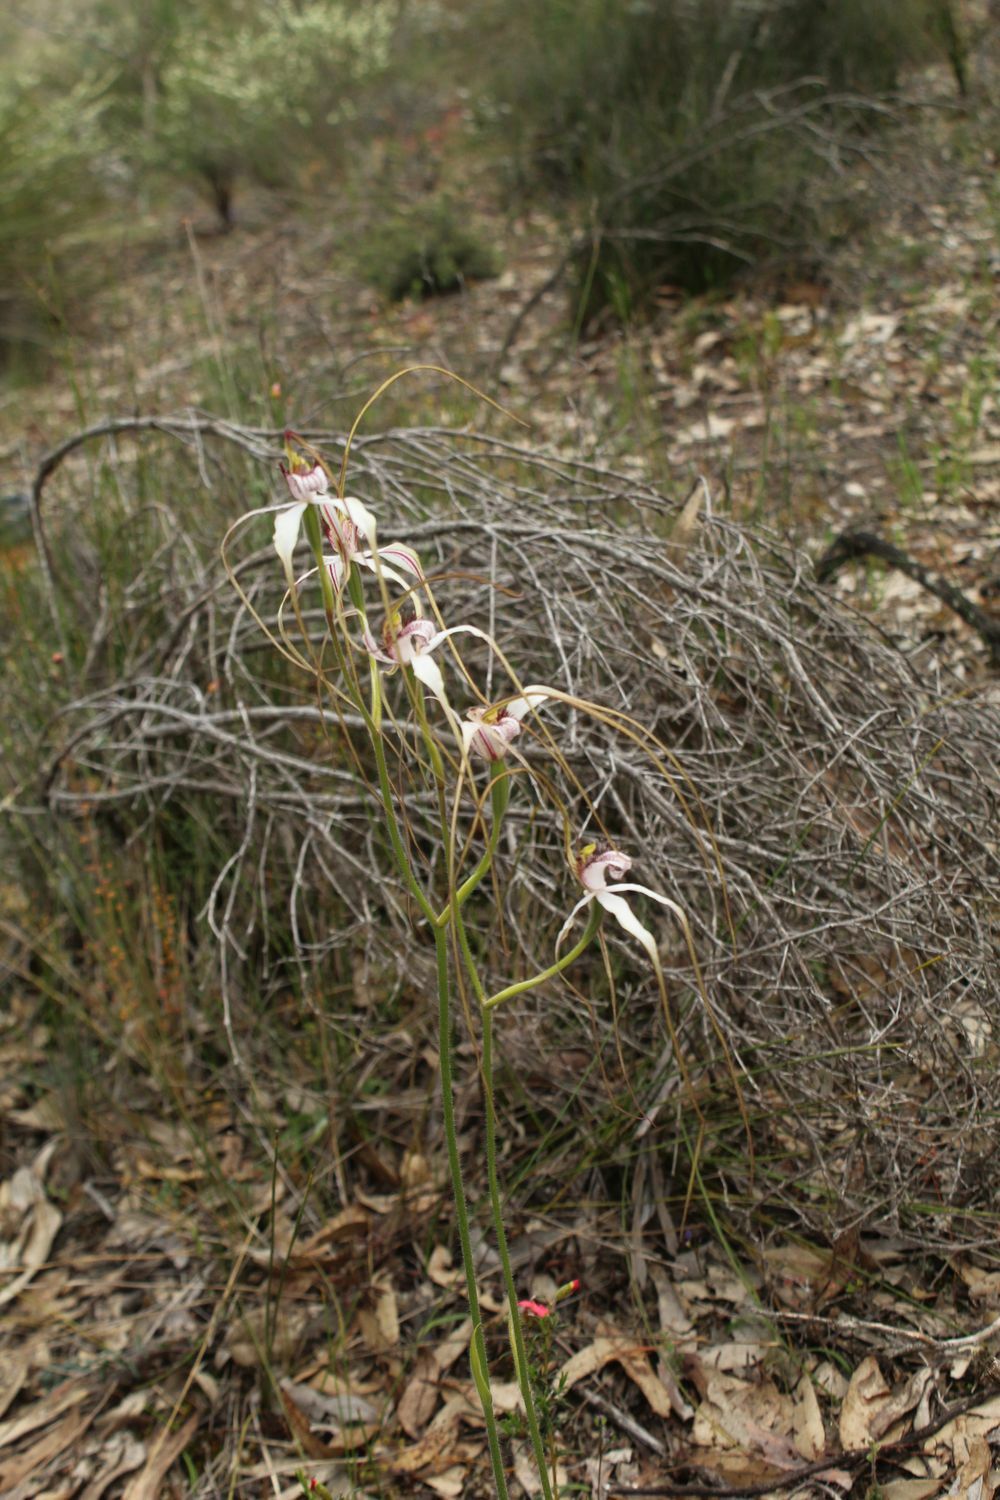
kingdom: Plantae
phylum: Tracheophyta
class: Liliopsida
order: Asparagales
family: Orchidaceae
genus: Caladenia
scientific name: Caladenia longicauda
